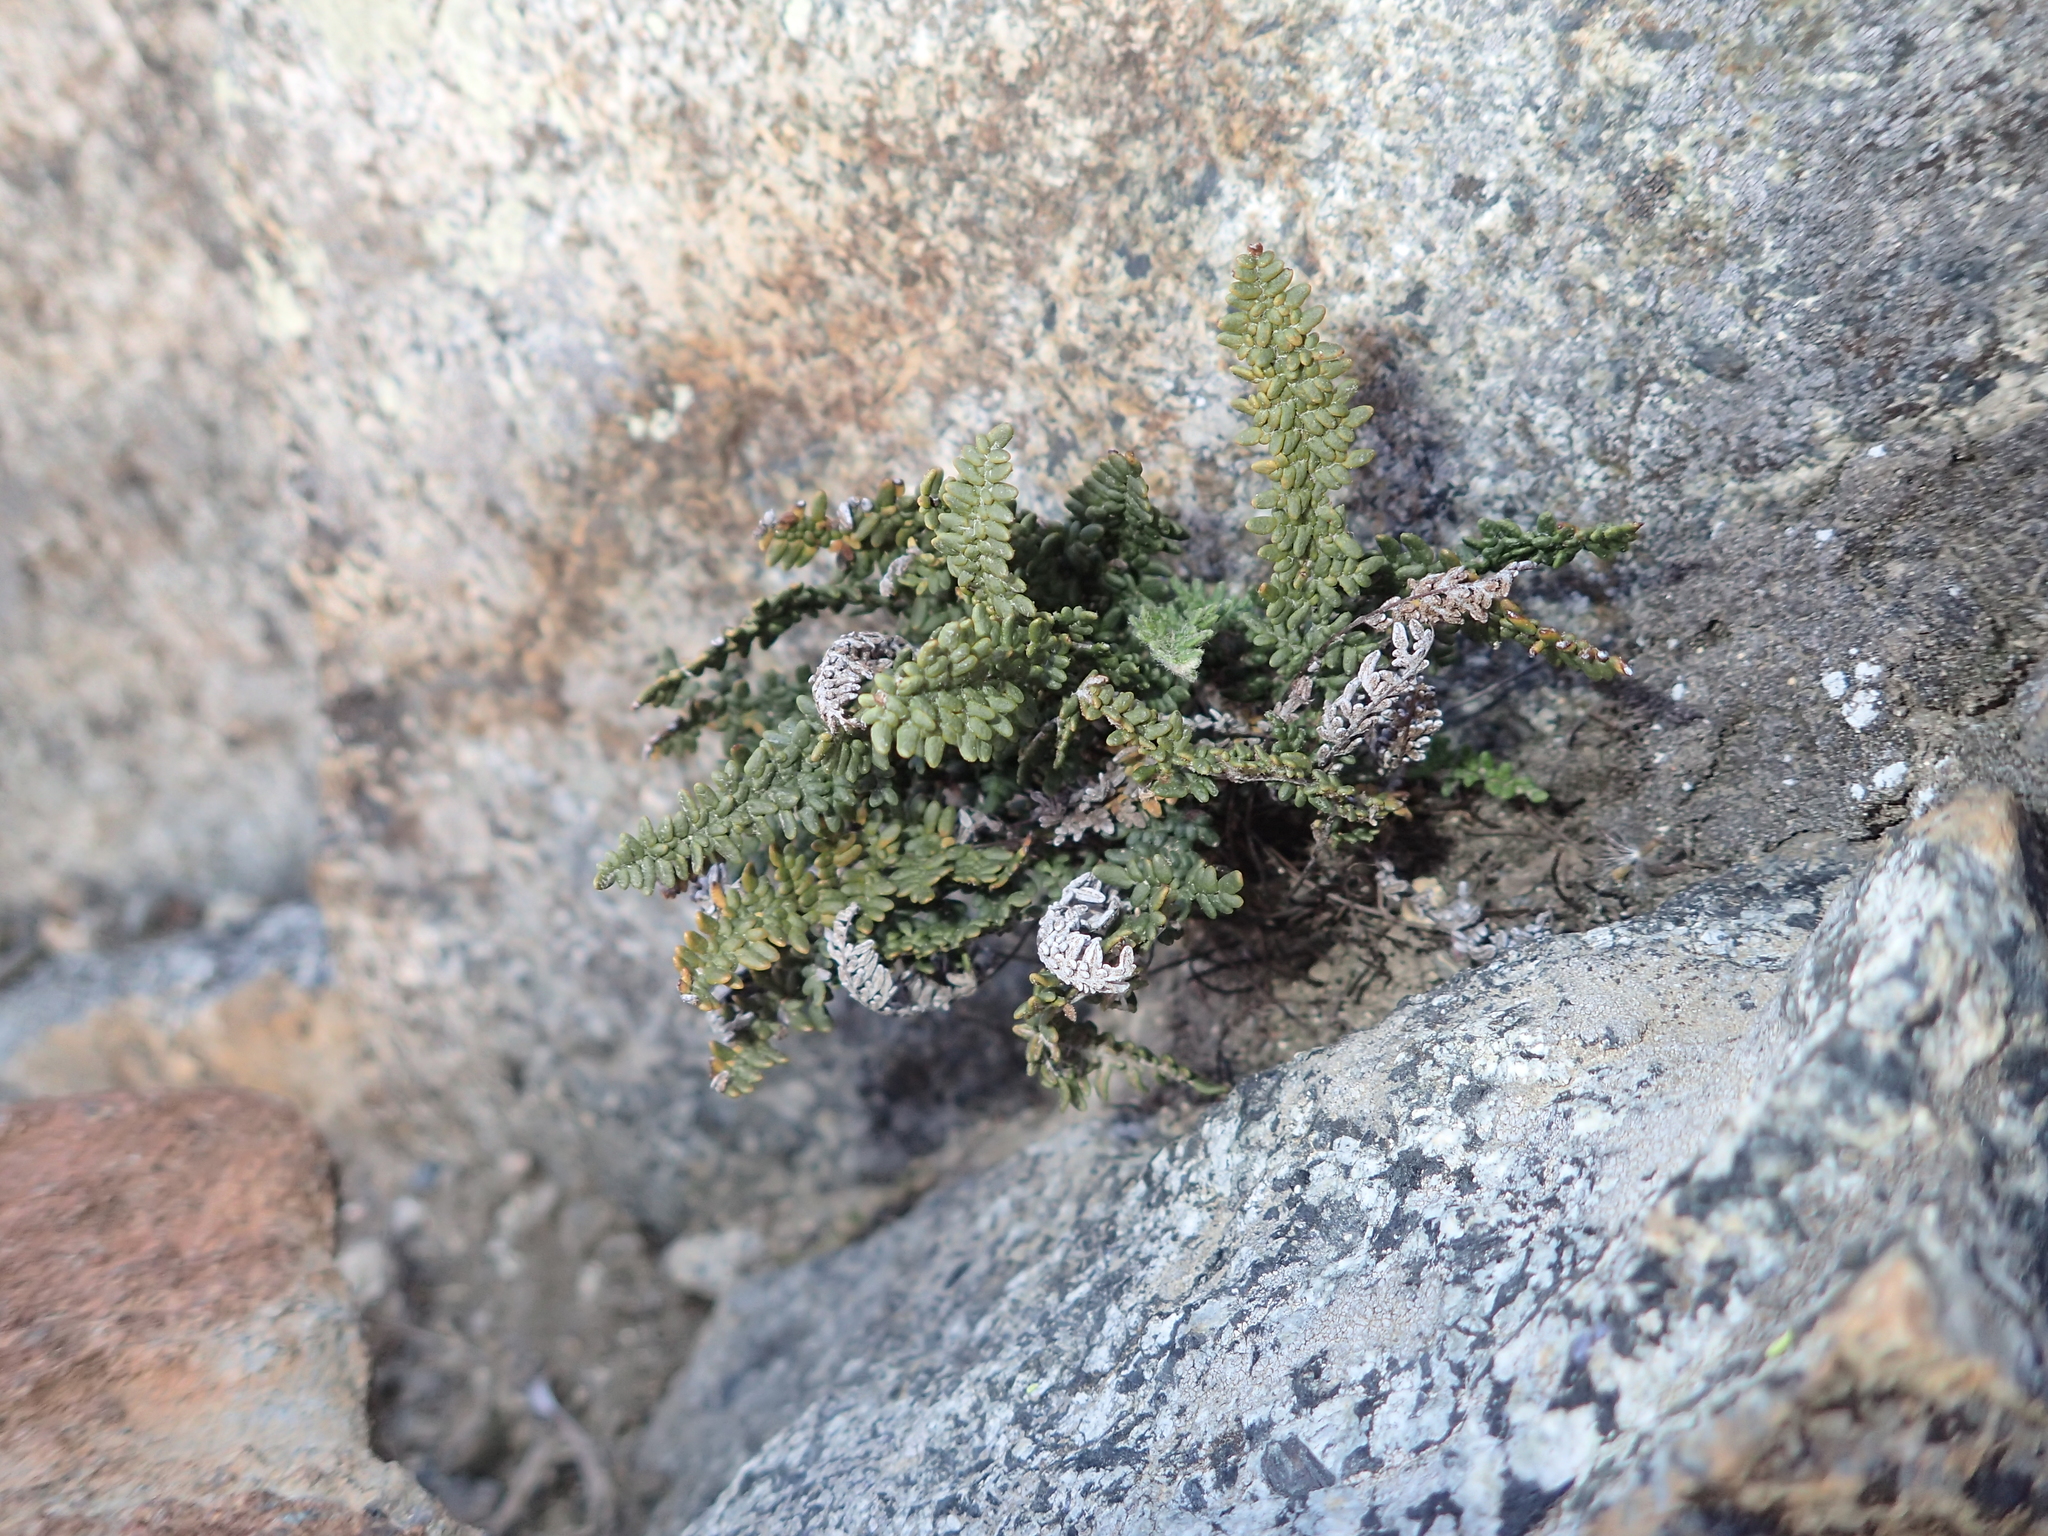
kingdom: Plantae
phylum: Tracheophyta
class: Polypodiopsida
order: Polypodiales
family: Pteridaceae
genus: Myriopteris
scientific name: Myriopteris gracillima
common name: Lace fern
